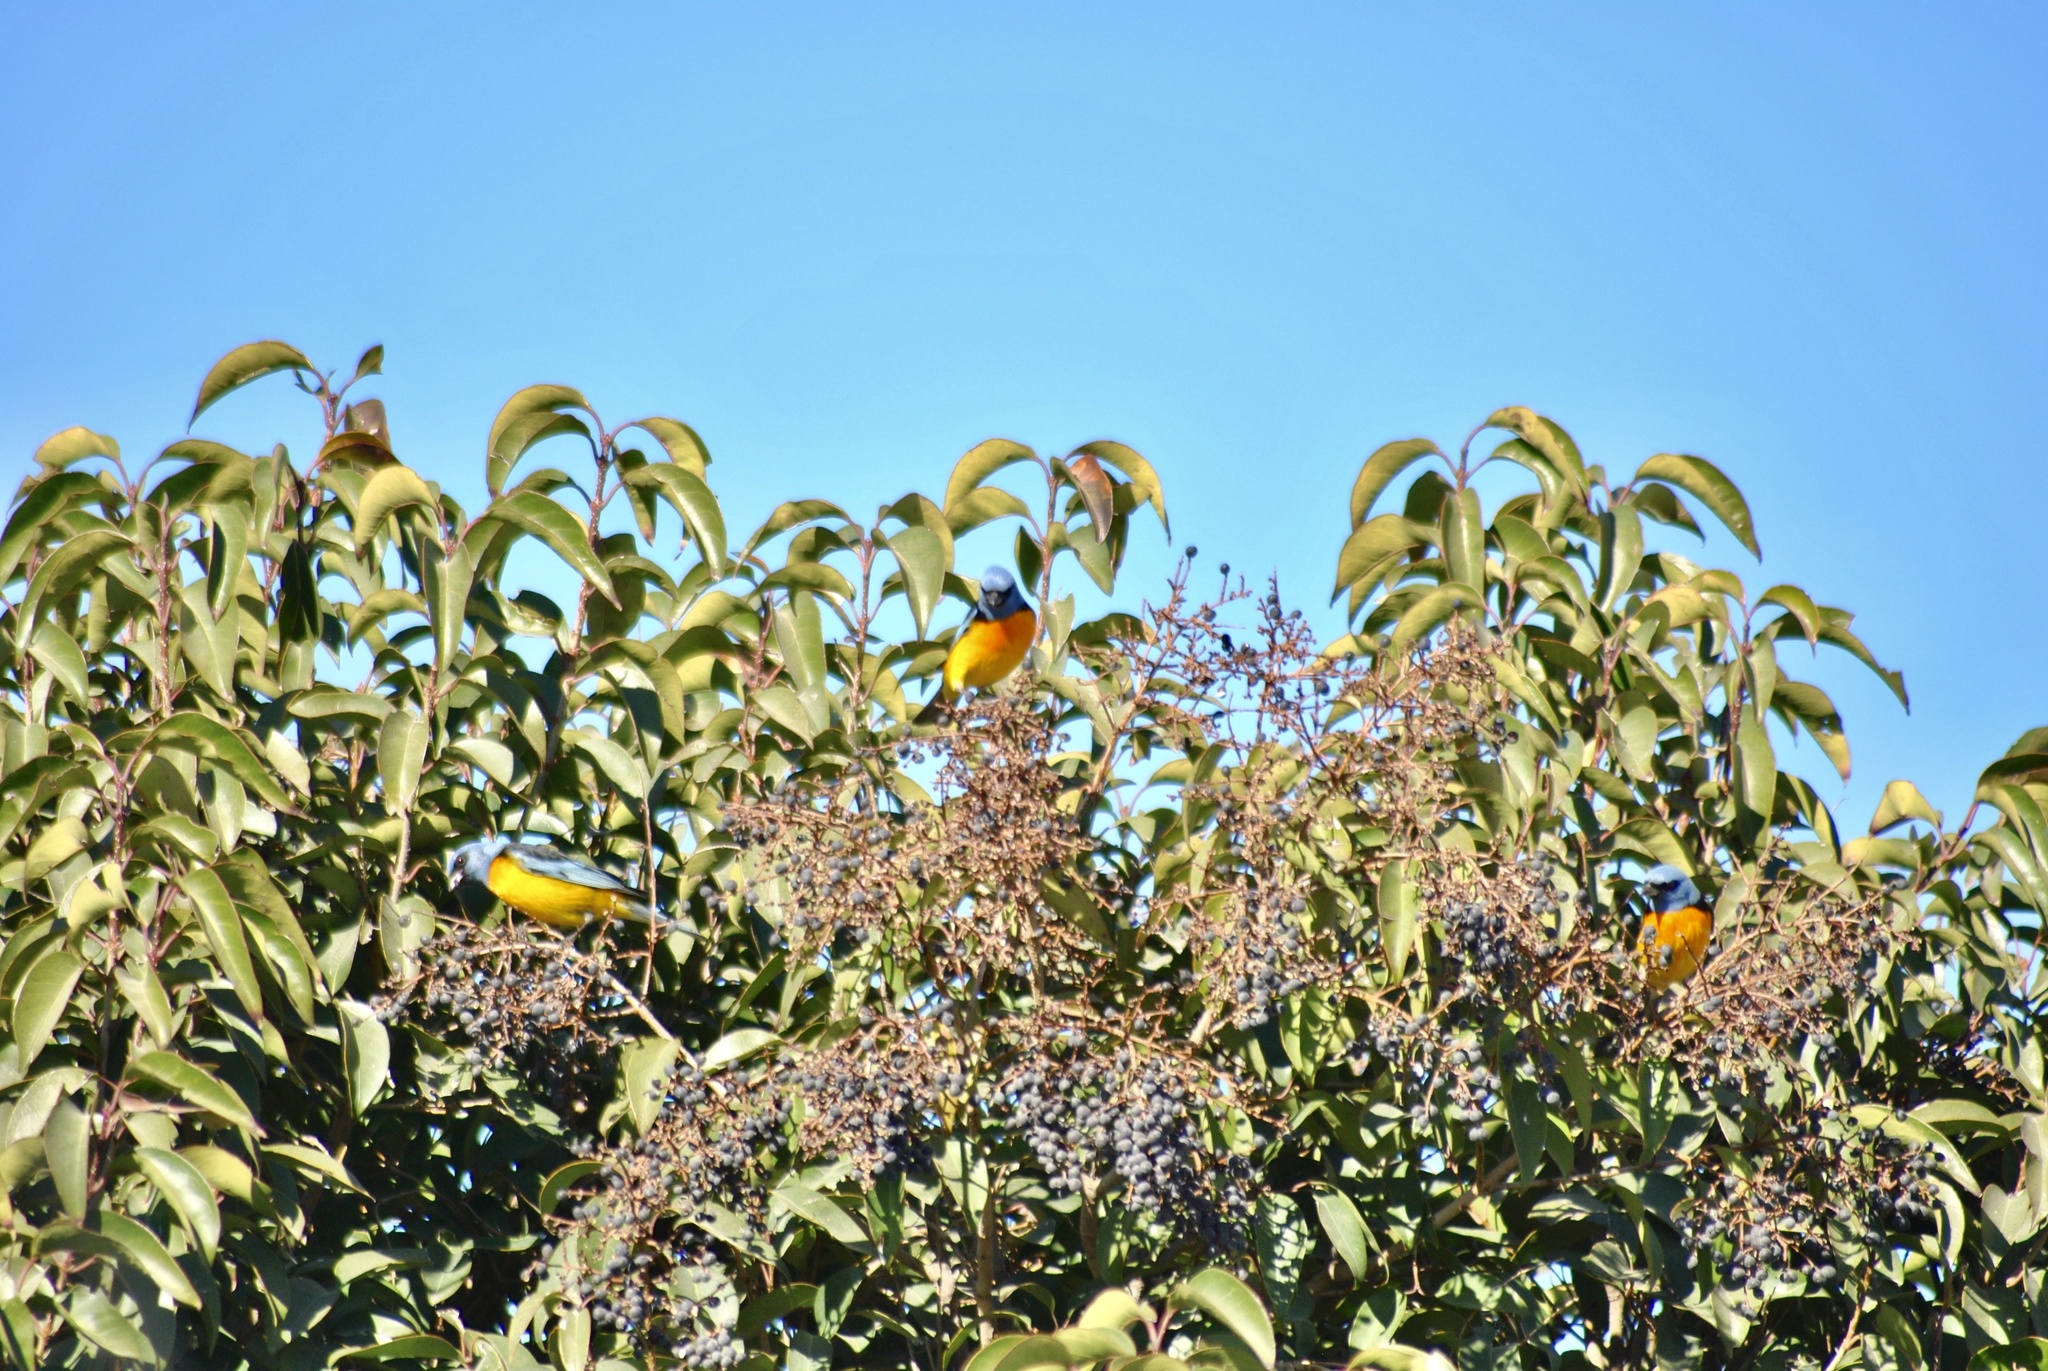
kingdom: Animalia
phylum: Chordata
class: Aves
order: Passeriformes
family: Thraupidae
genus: Rauenia
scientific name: Rauenia bonariensis
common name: Blue-and-yellow tanager
